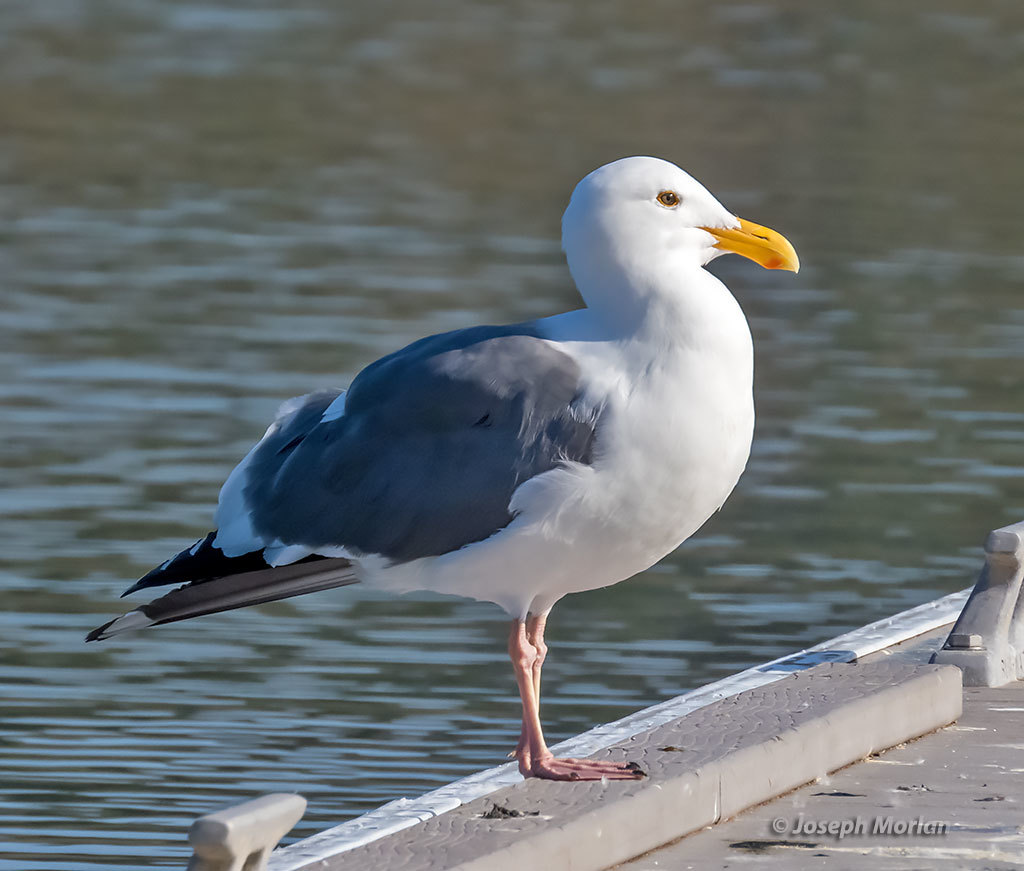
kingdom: Animalia
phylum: Chordata
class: Aves
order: Charadriiformes
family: Laridae
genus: Larus
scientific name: Larus occidentalis
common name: Western gull
